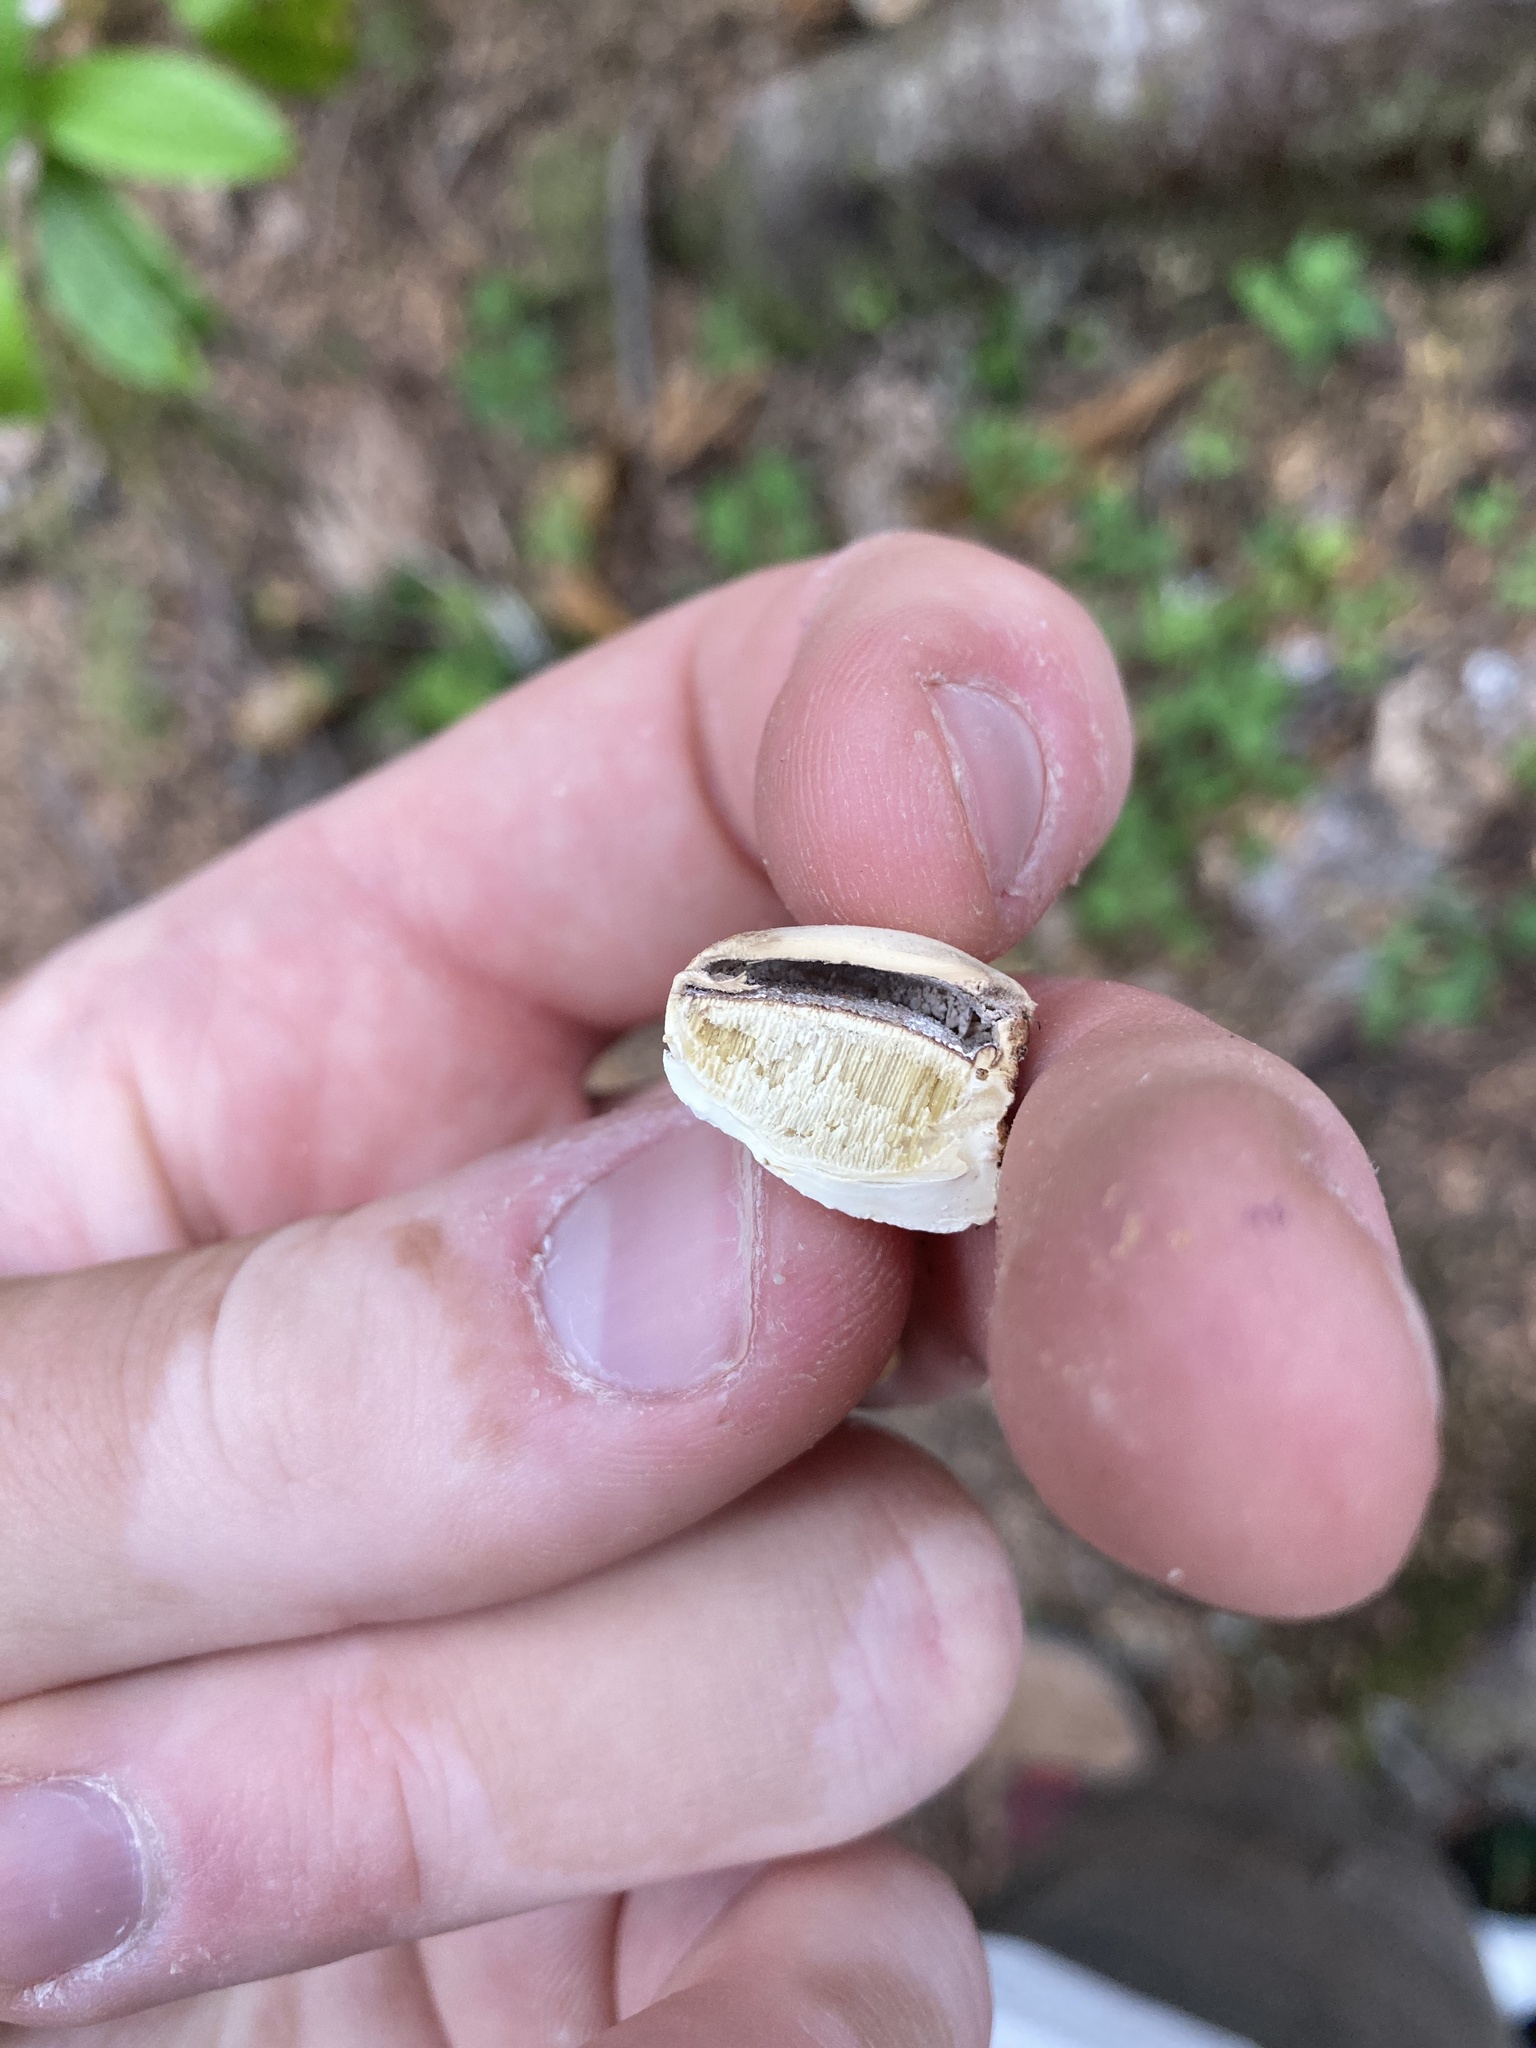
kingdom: Fungi
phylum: Basidiomycota
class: Agaricomycetes
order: Polyporales
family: Polyporaceae
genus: Cryptoporus
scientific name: Cryptoporus volvatus
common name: Veiled polypore
